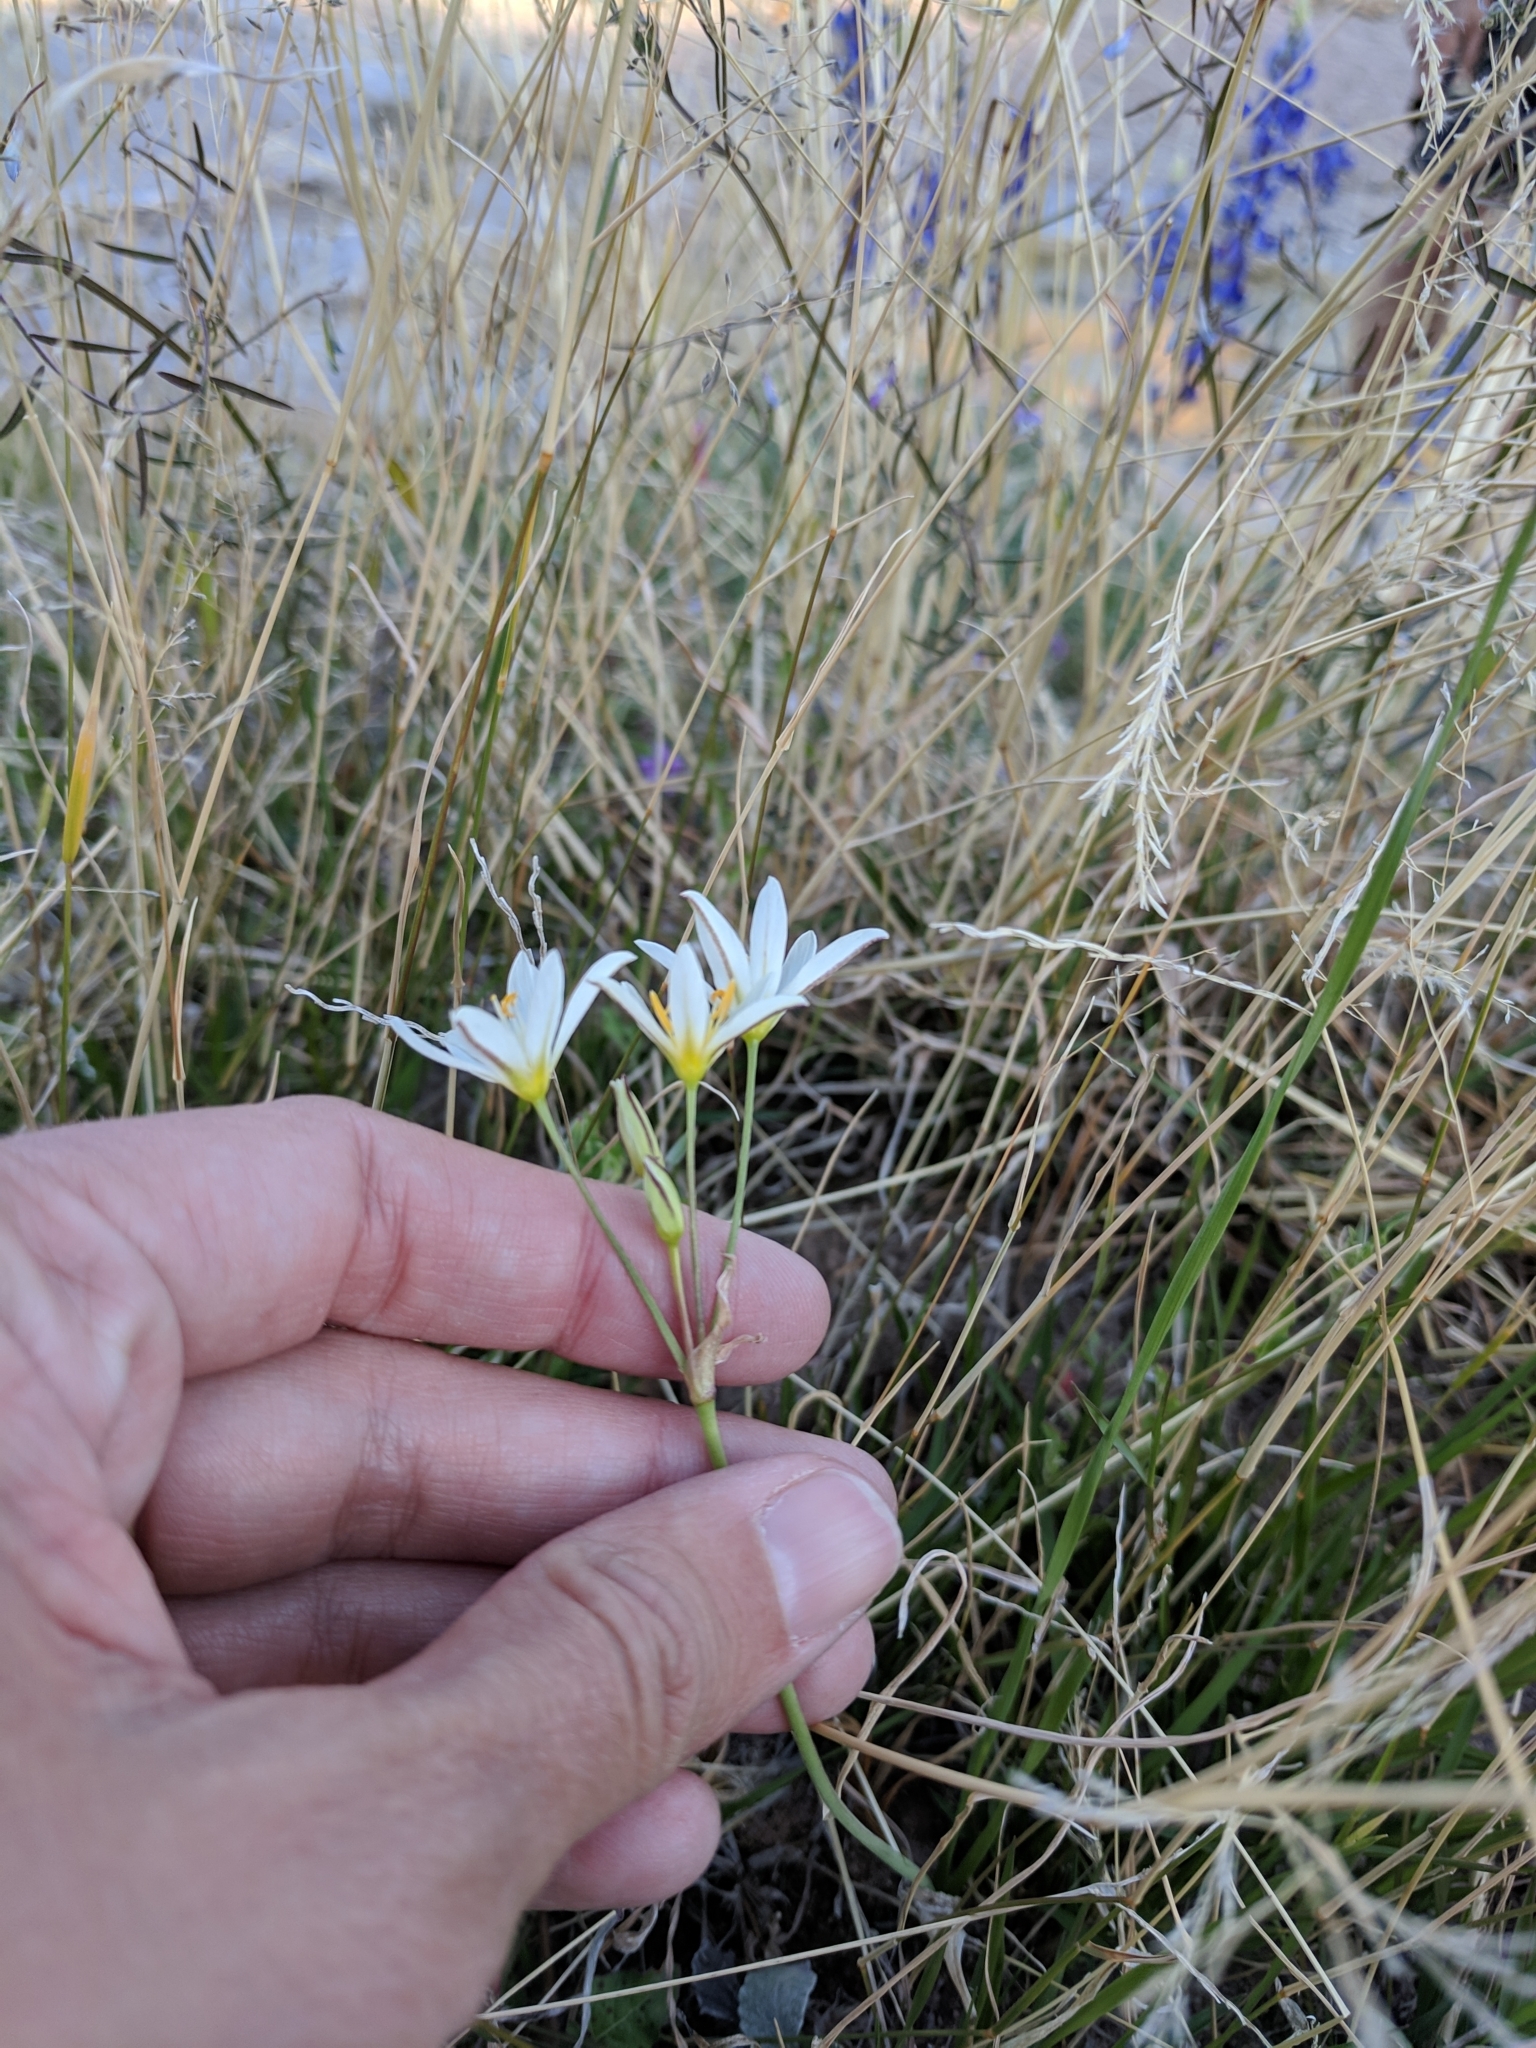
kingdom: Plantae
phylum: Tracheophyta
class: Liliopsida
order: Asparagales
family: Amaryllidaceae
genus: Nothoscordum
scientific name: Nothoscordum bivalve
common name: Crow-poison
